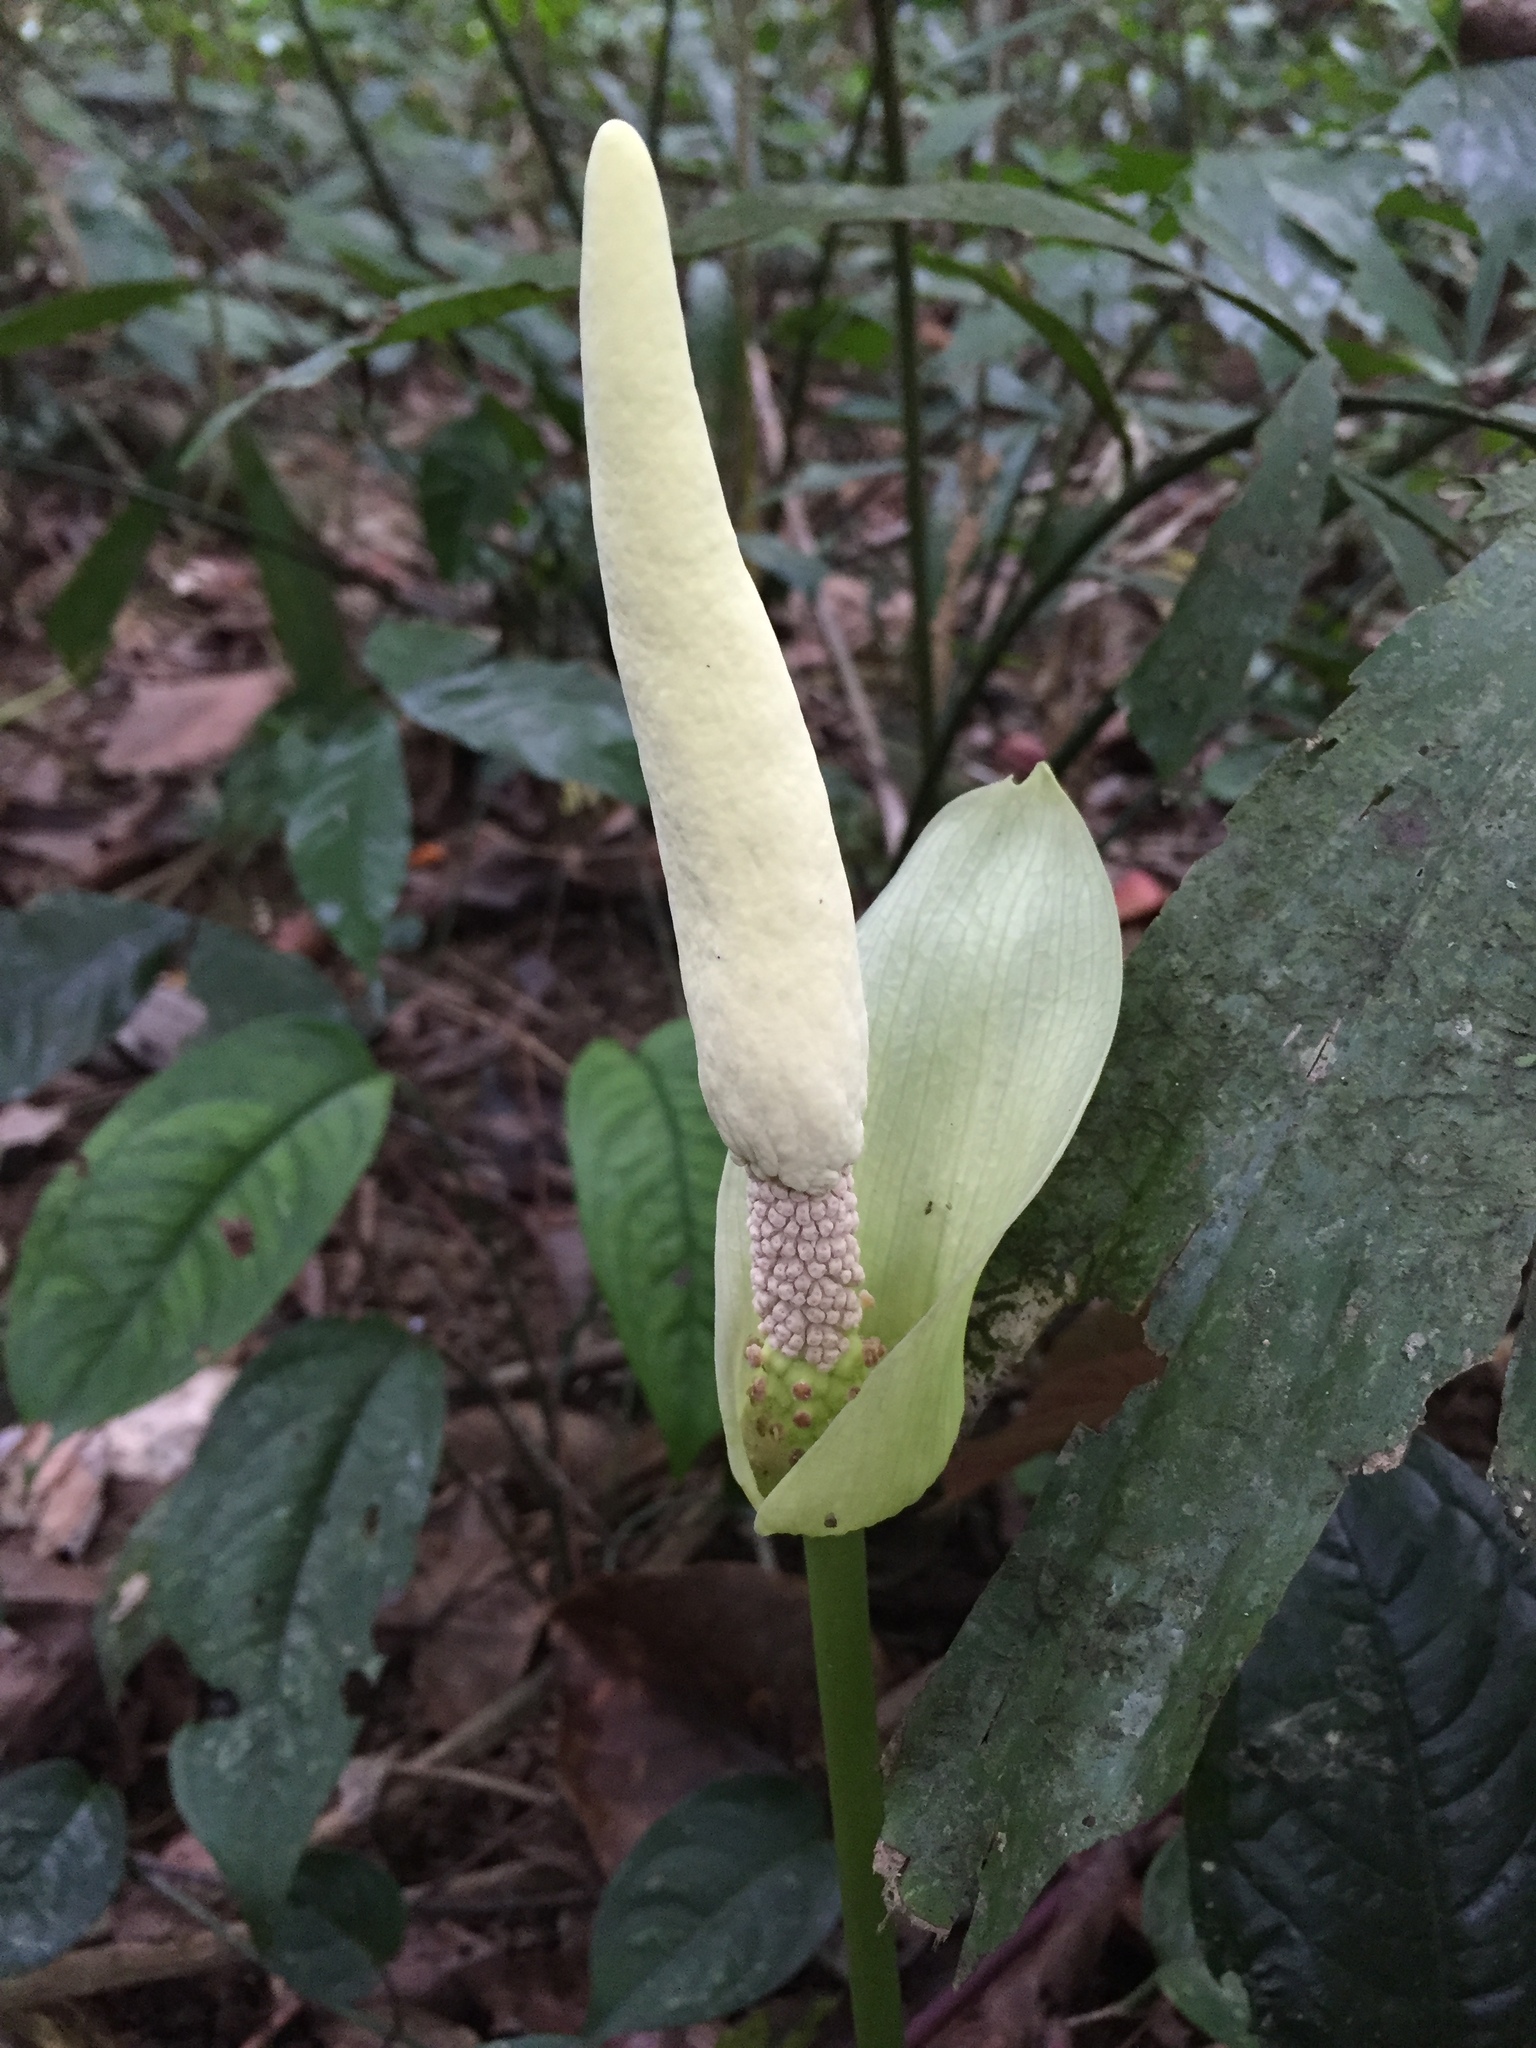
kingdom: Plantae
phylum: Tracheophyta
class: Liliopsida
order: Alismatales
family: Araceae
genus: Amorphophallus
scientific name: Amorphophallus coaetaneus
